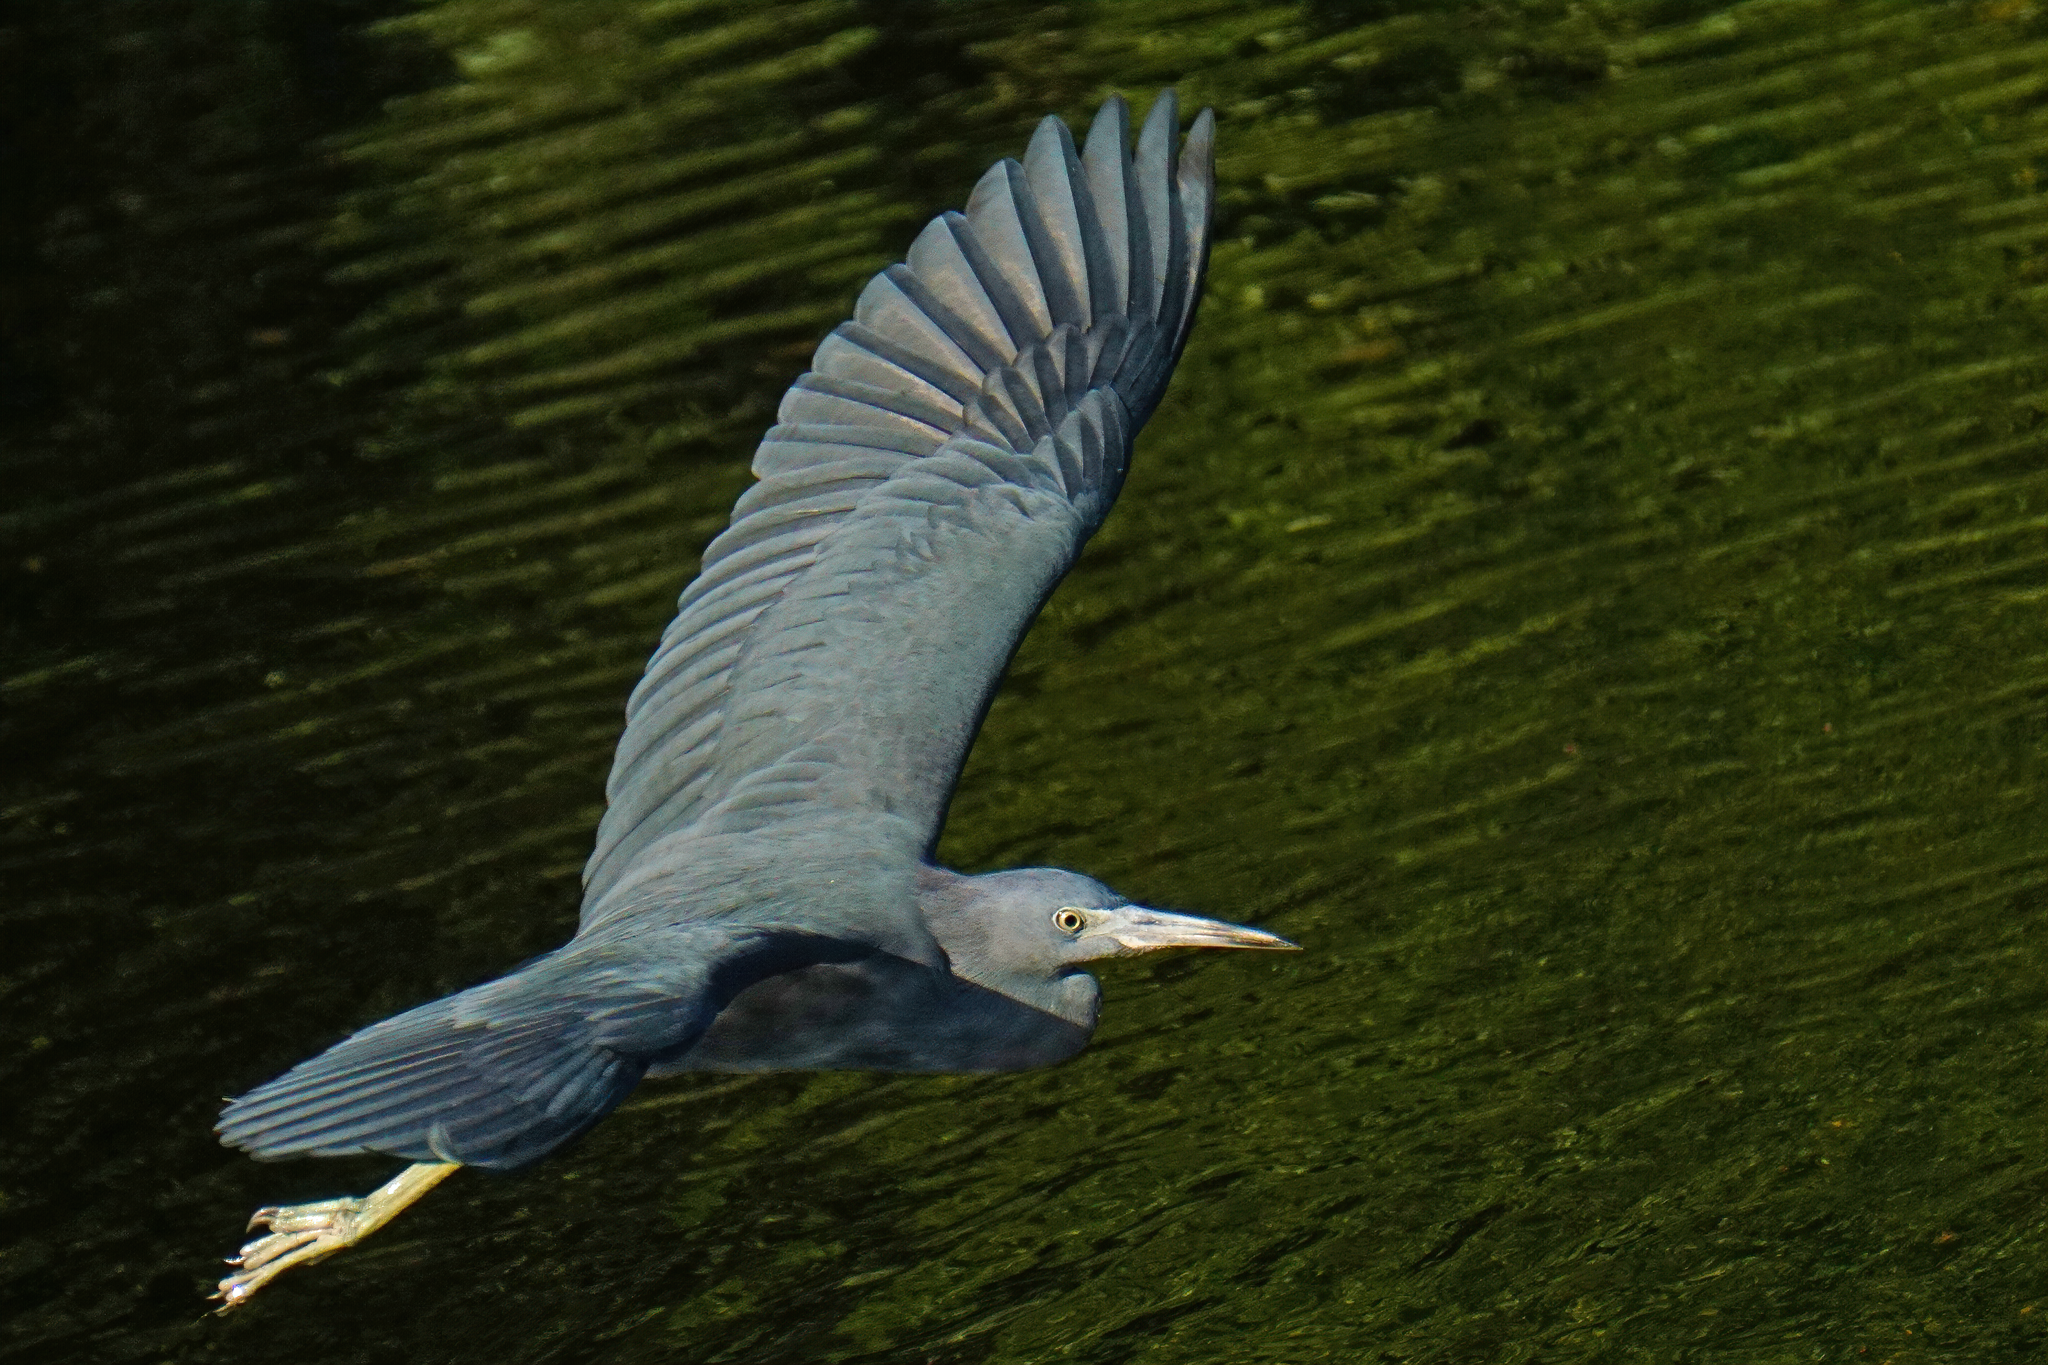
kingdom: Animalia
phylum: Chordata
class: Aves
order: Pelecaniformes
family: Ardeidae
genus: Egretta
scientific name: Egretta caerulea
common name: Little blue heron
